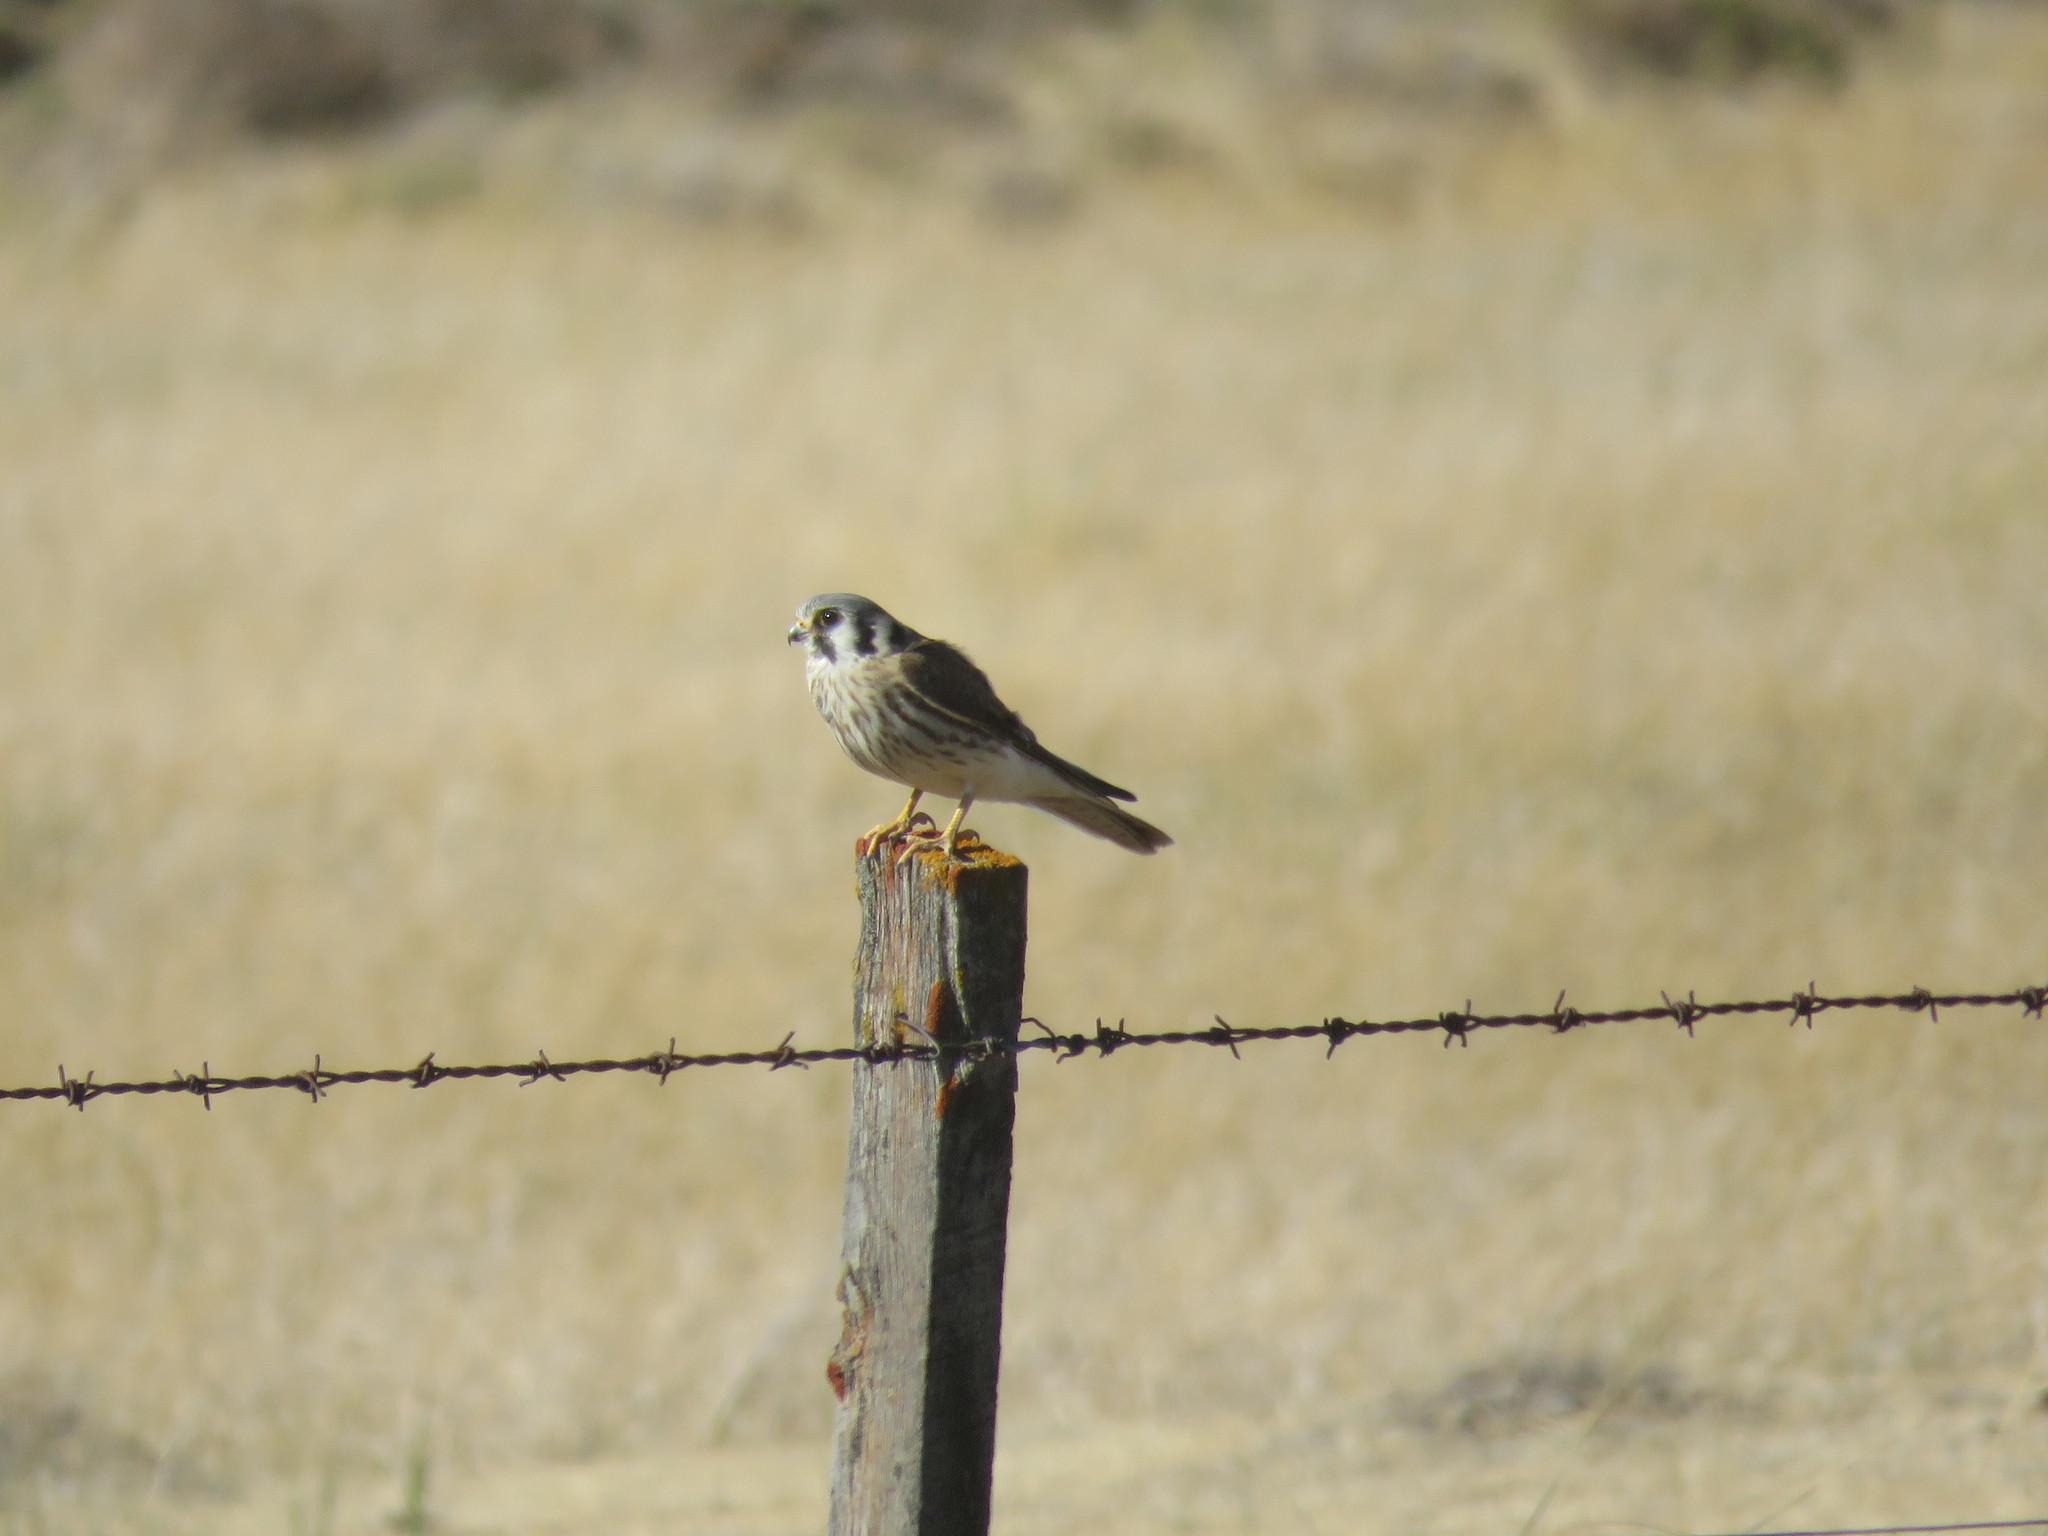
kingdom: Animalia
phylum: Chordata
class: Aves
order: Falconiformes
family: Falconidae
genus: Falco
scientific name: Falco sparverius
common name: American kestrel
